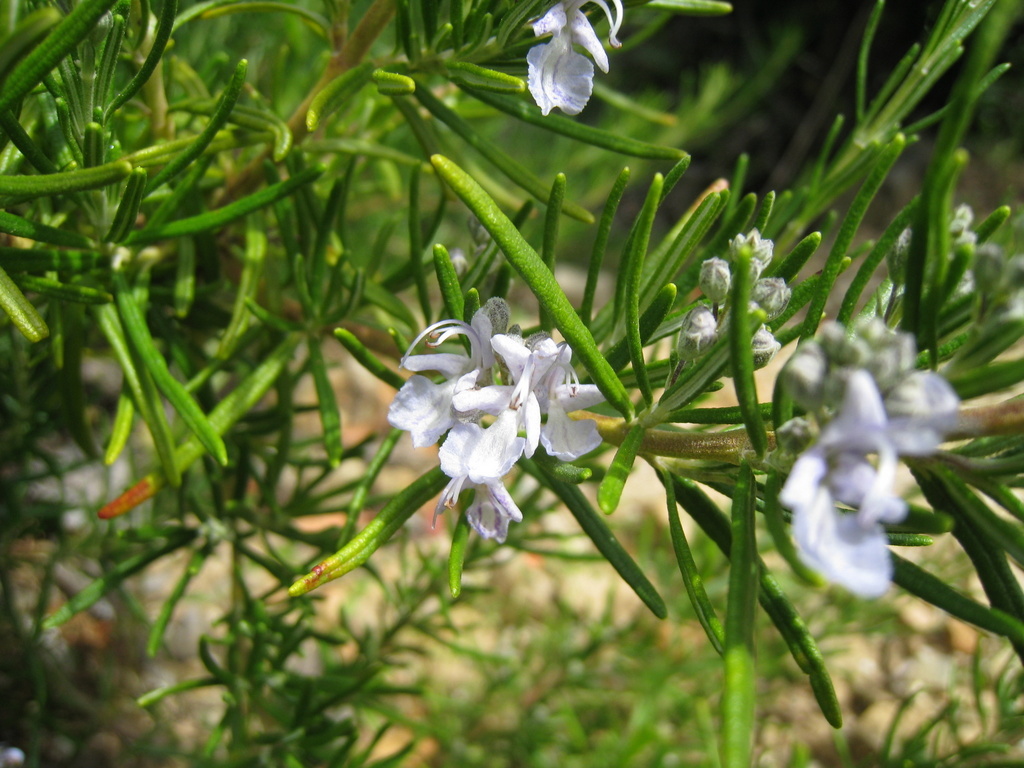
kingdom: Plantae
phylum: Tracheophyta
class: Magnoliopsida
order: Lamiales
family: Lamiaceae
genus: Salvia
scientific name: Salvia rosmarinus
